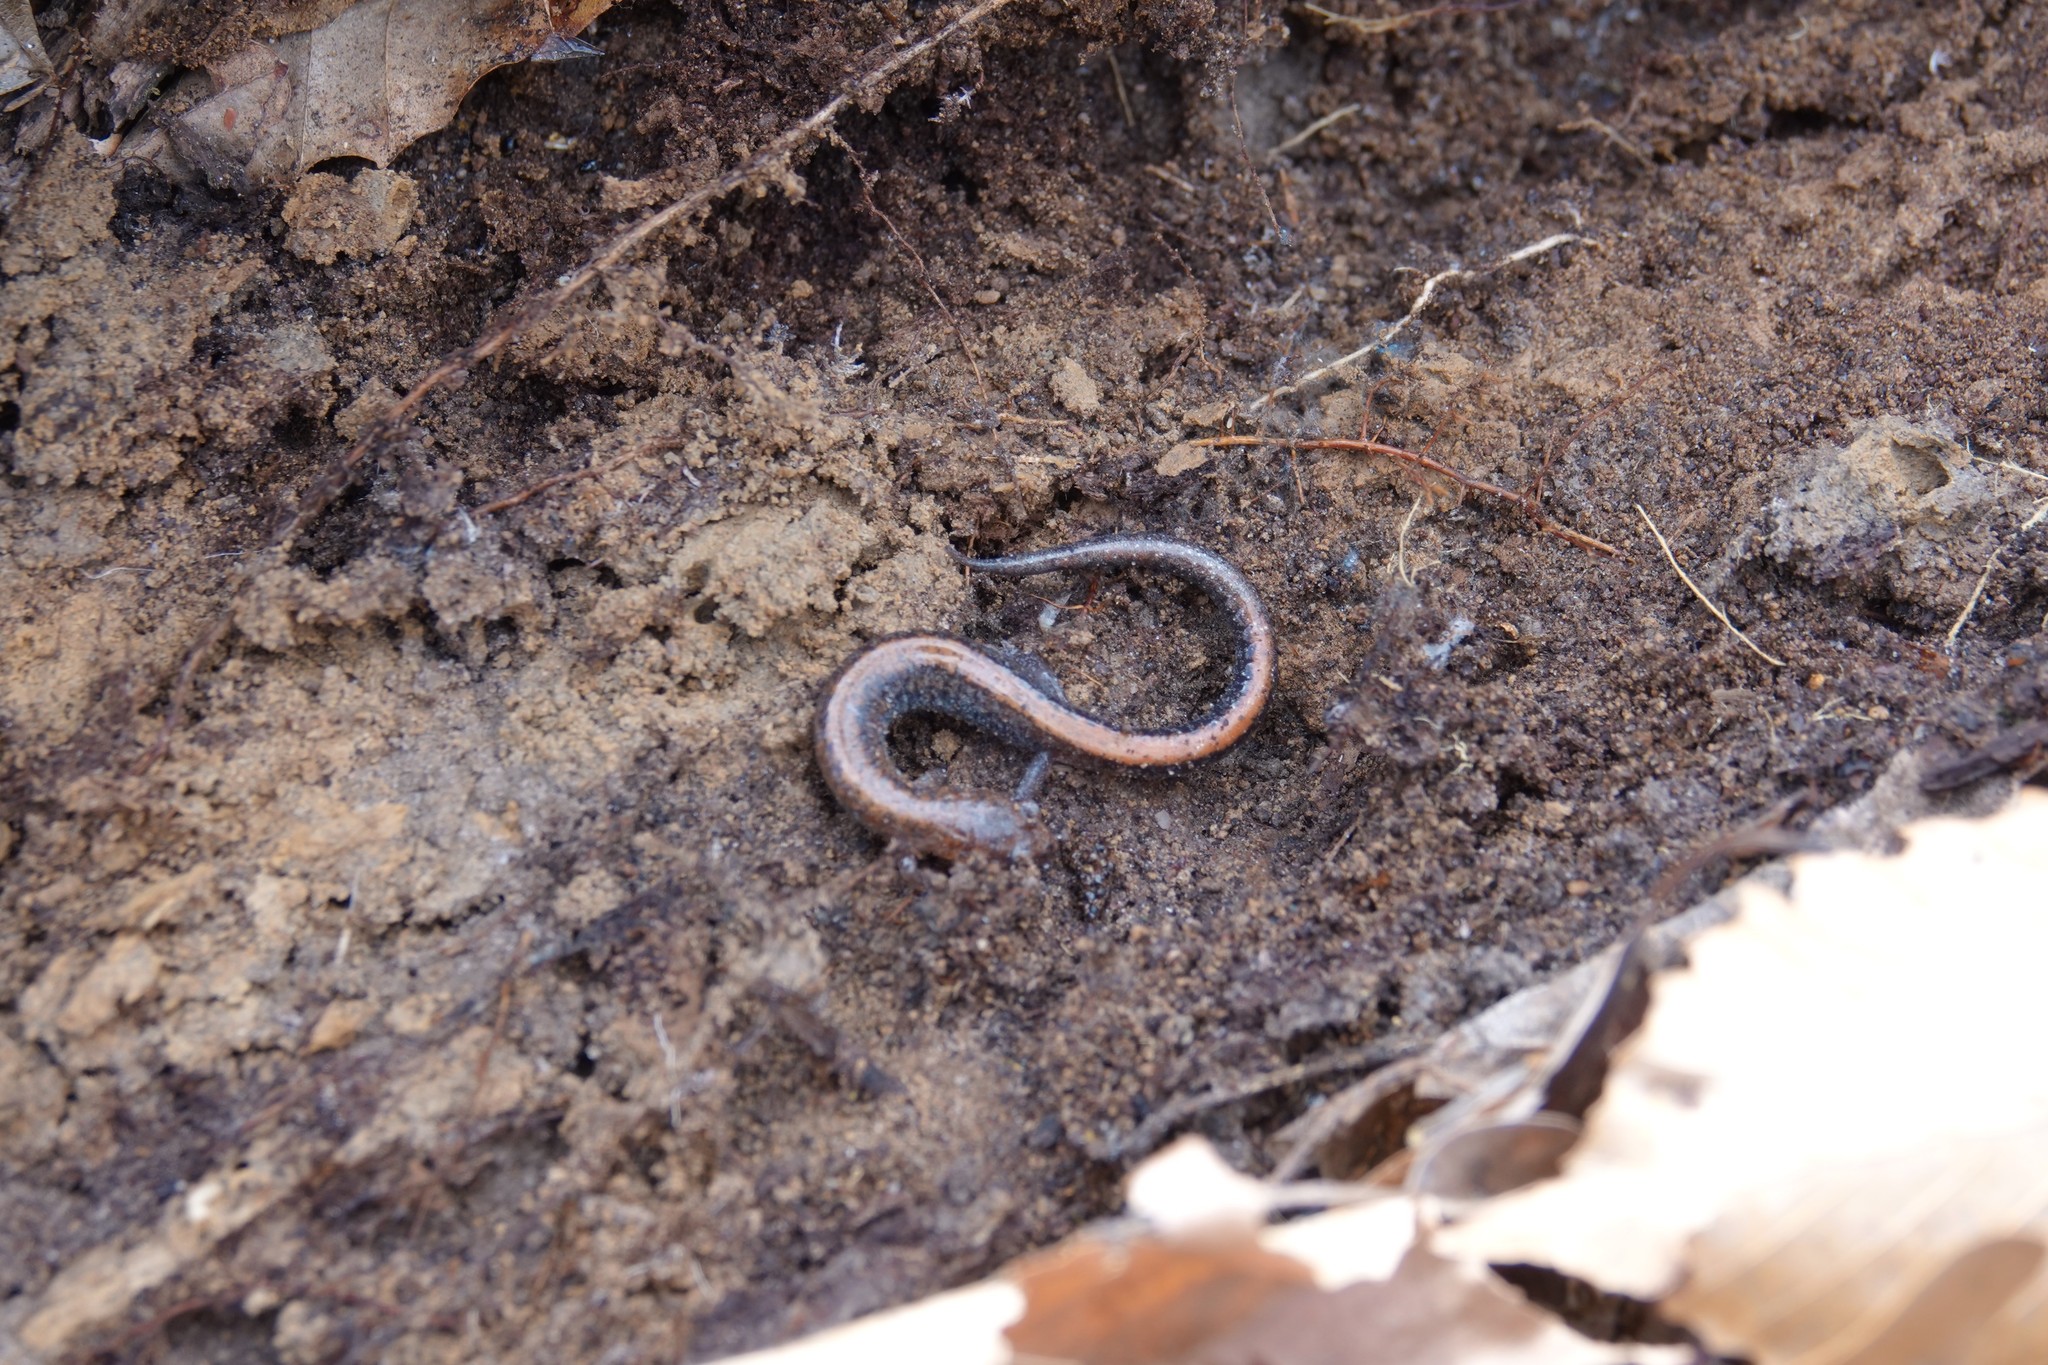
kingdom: Animalia
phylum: Chordata
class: Amphibia
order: Caudata
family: Plethodontidae
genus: Plethodon
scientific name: Plethodon cinereus
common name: Redback salamander
